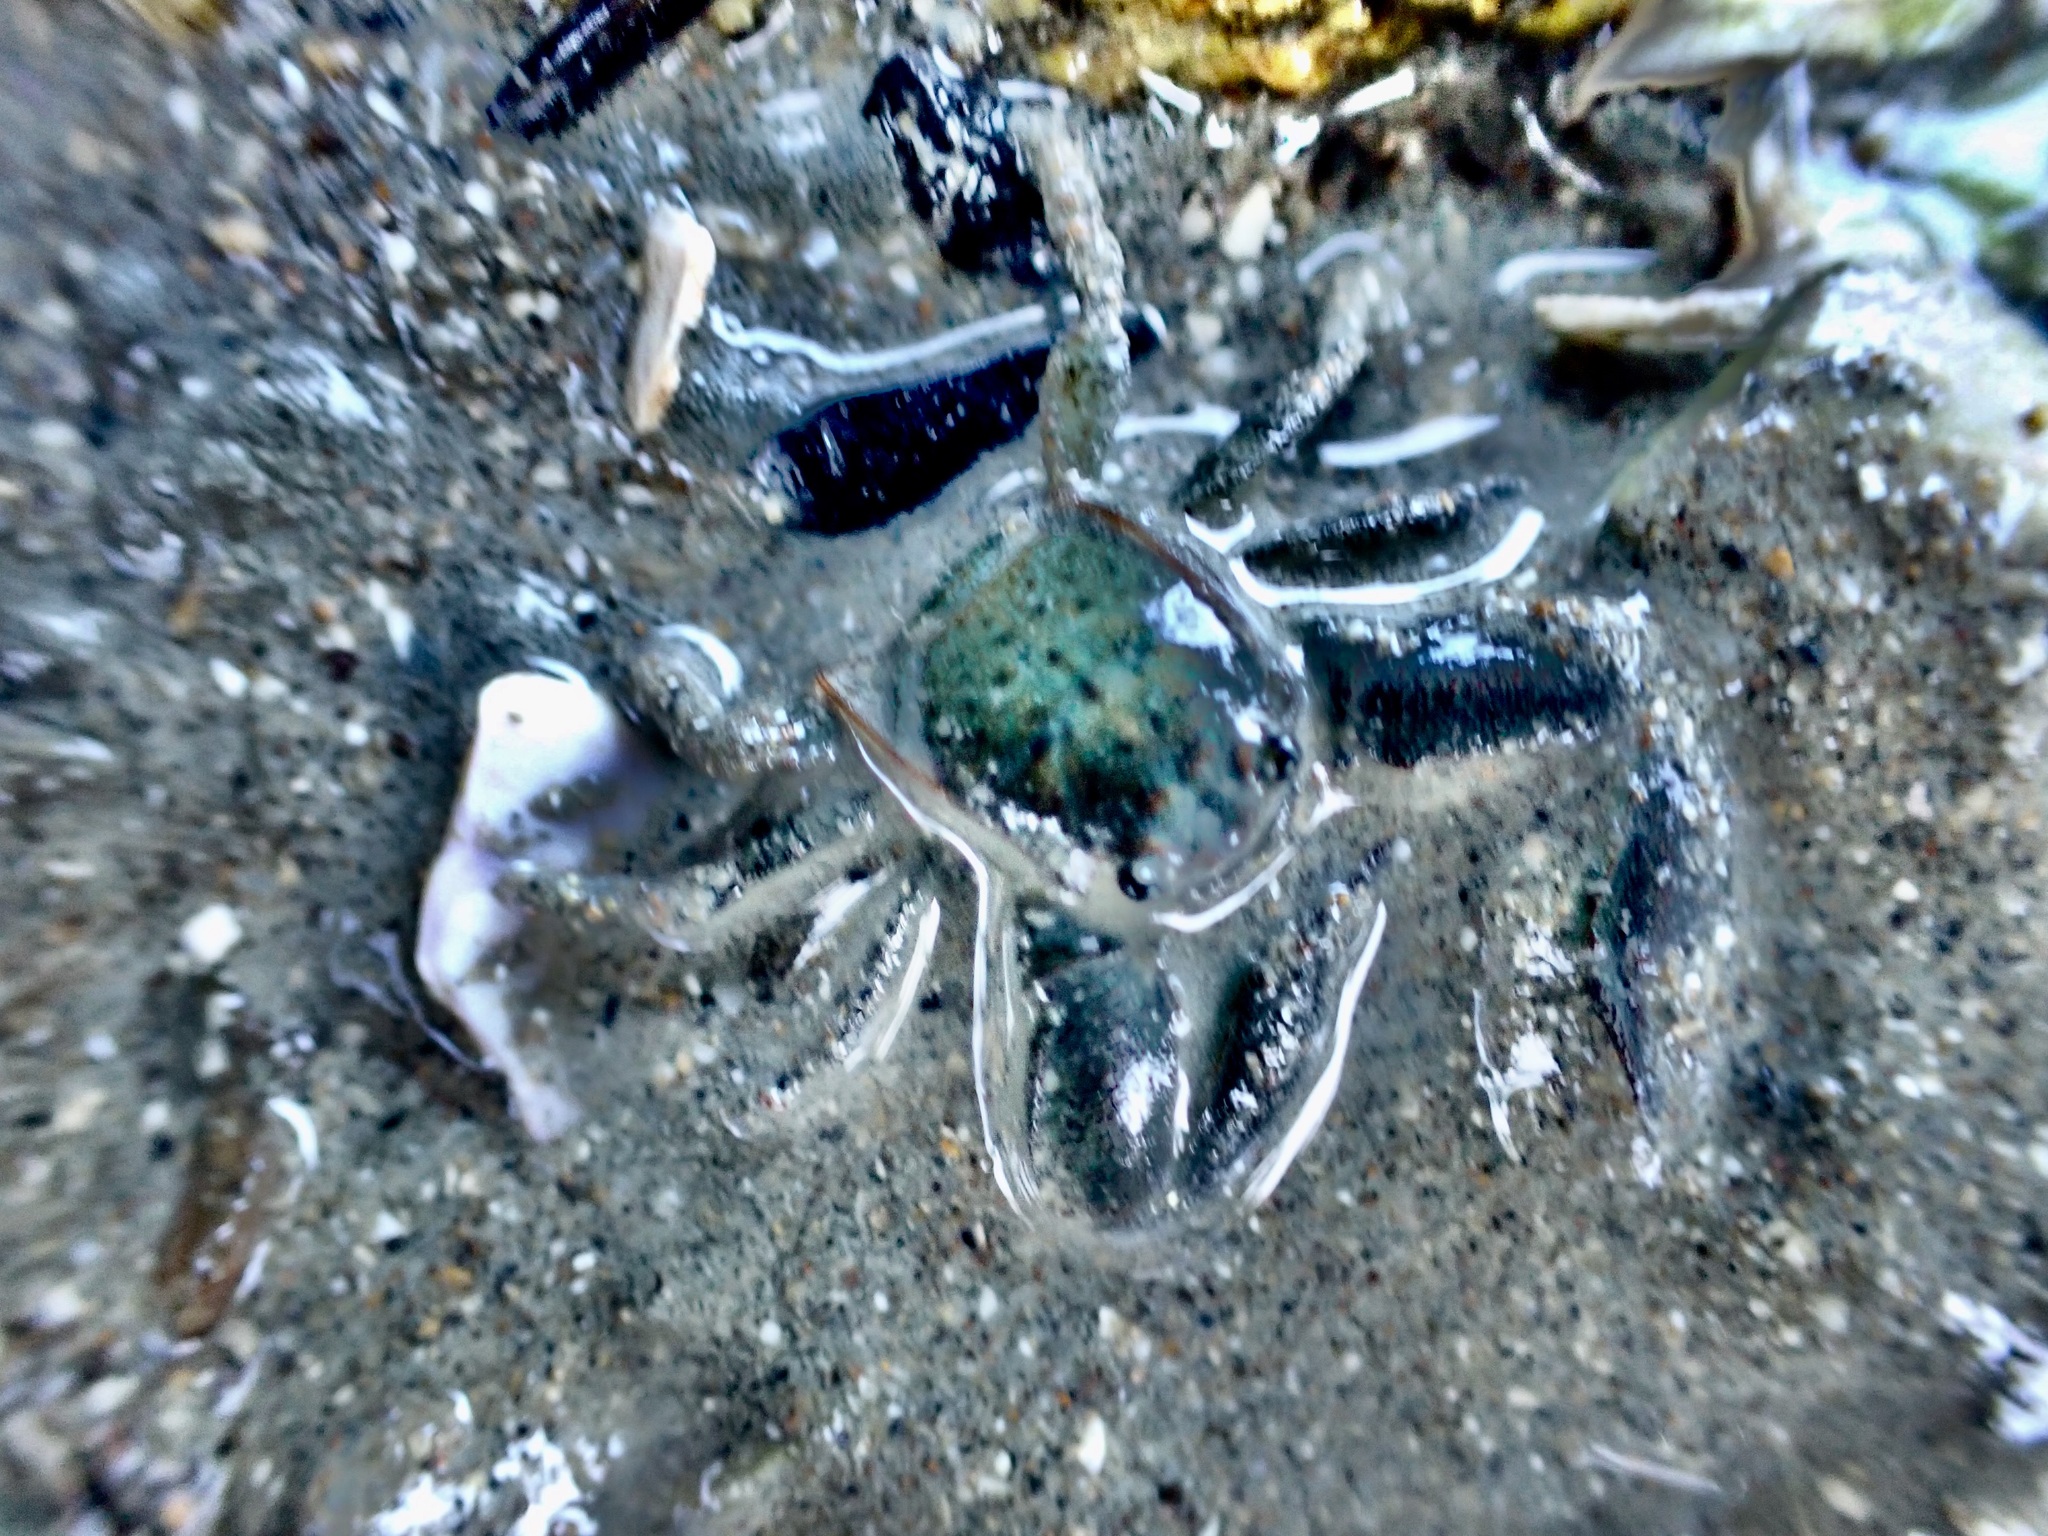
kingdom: Animalia
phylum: Arthropoda
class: Malacostraca
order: Decapoda
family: Porcellanidae
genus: Petrolisthes
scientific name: Petrolisthes elongatus
